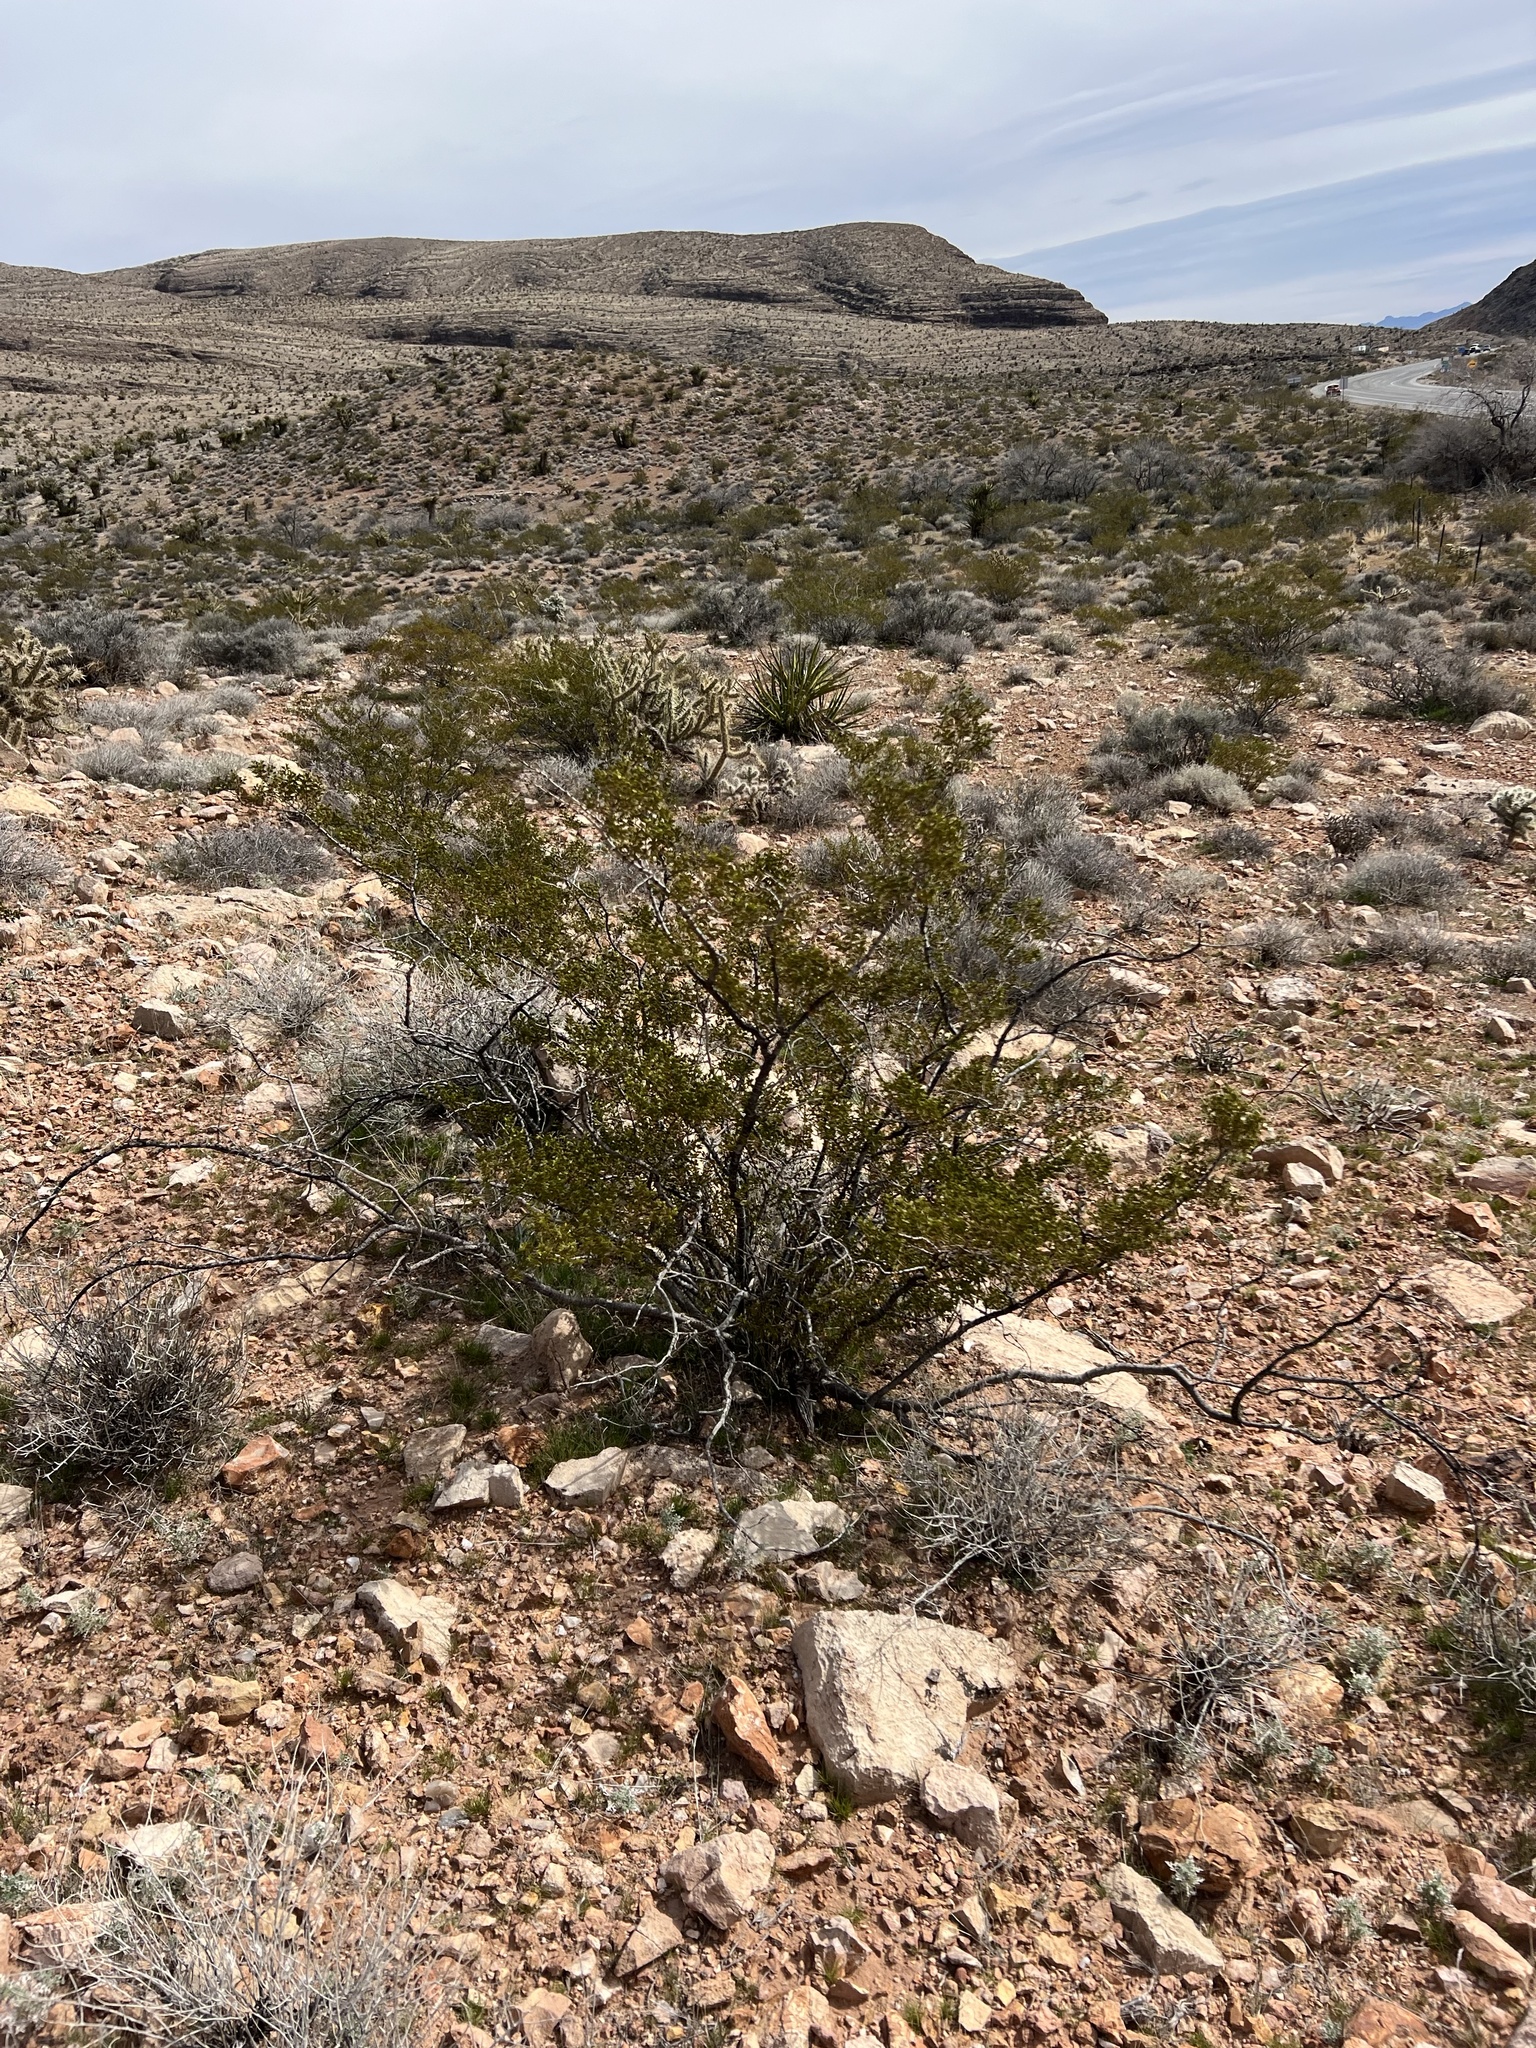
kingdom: Plantae
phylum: Tracheophyta
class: Magnoliopsida
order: Zygophyllales
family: Zygophyllaceae
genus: Larrea
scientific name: Larrea tridentata
